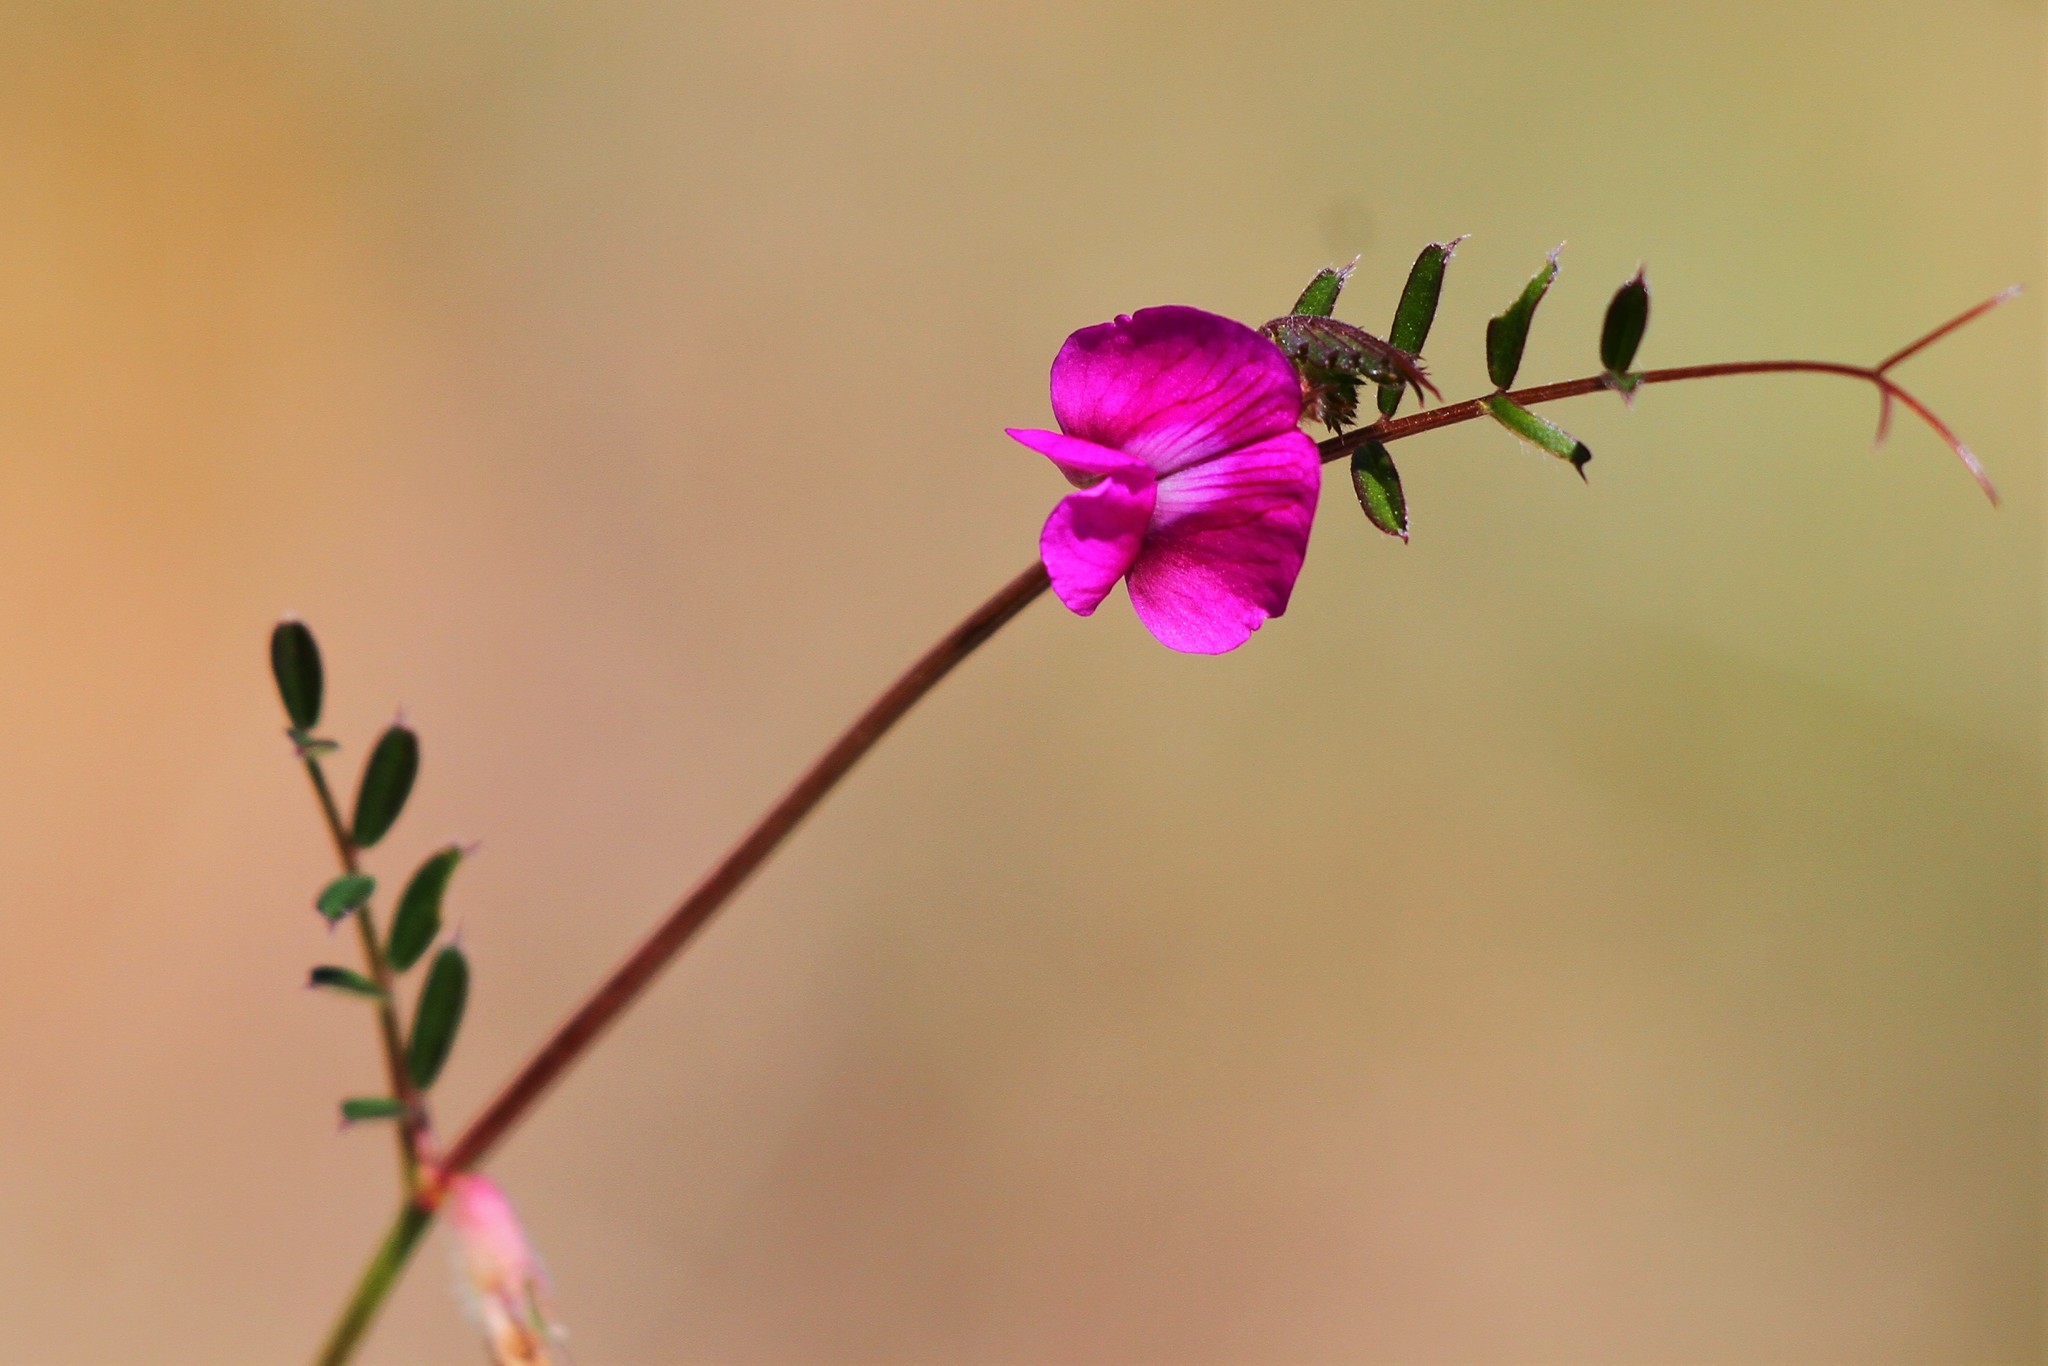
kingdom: Plantae
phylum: Tracheophyta
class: Magnoliopsida
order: Fabales
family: Fabaceae
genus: Vicia
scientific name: Vicia sativa
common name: Garden vetch
